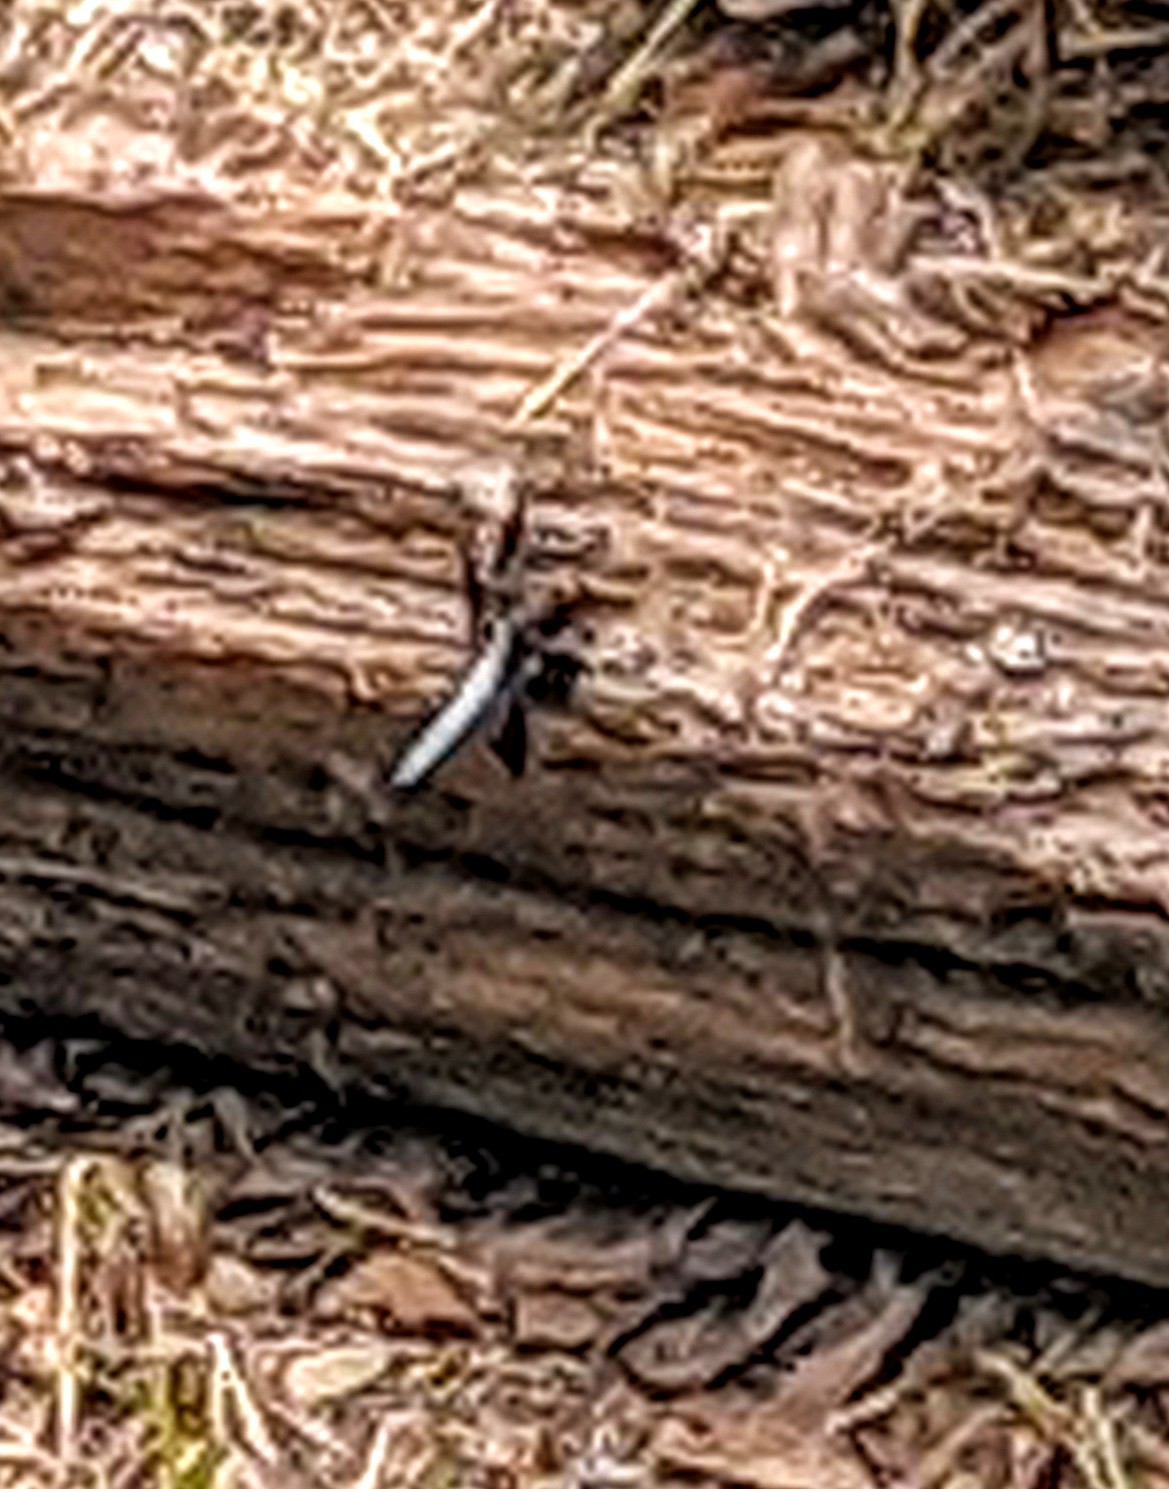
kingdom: Animalia
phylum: Arthropoda
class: Insecta
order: Odonata
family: Libellulidae
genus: Plathemis
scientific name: Plathemis lydia
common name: Common whitetail
